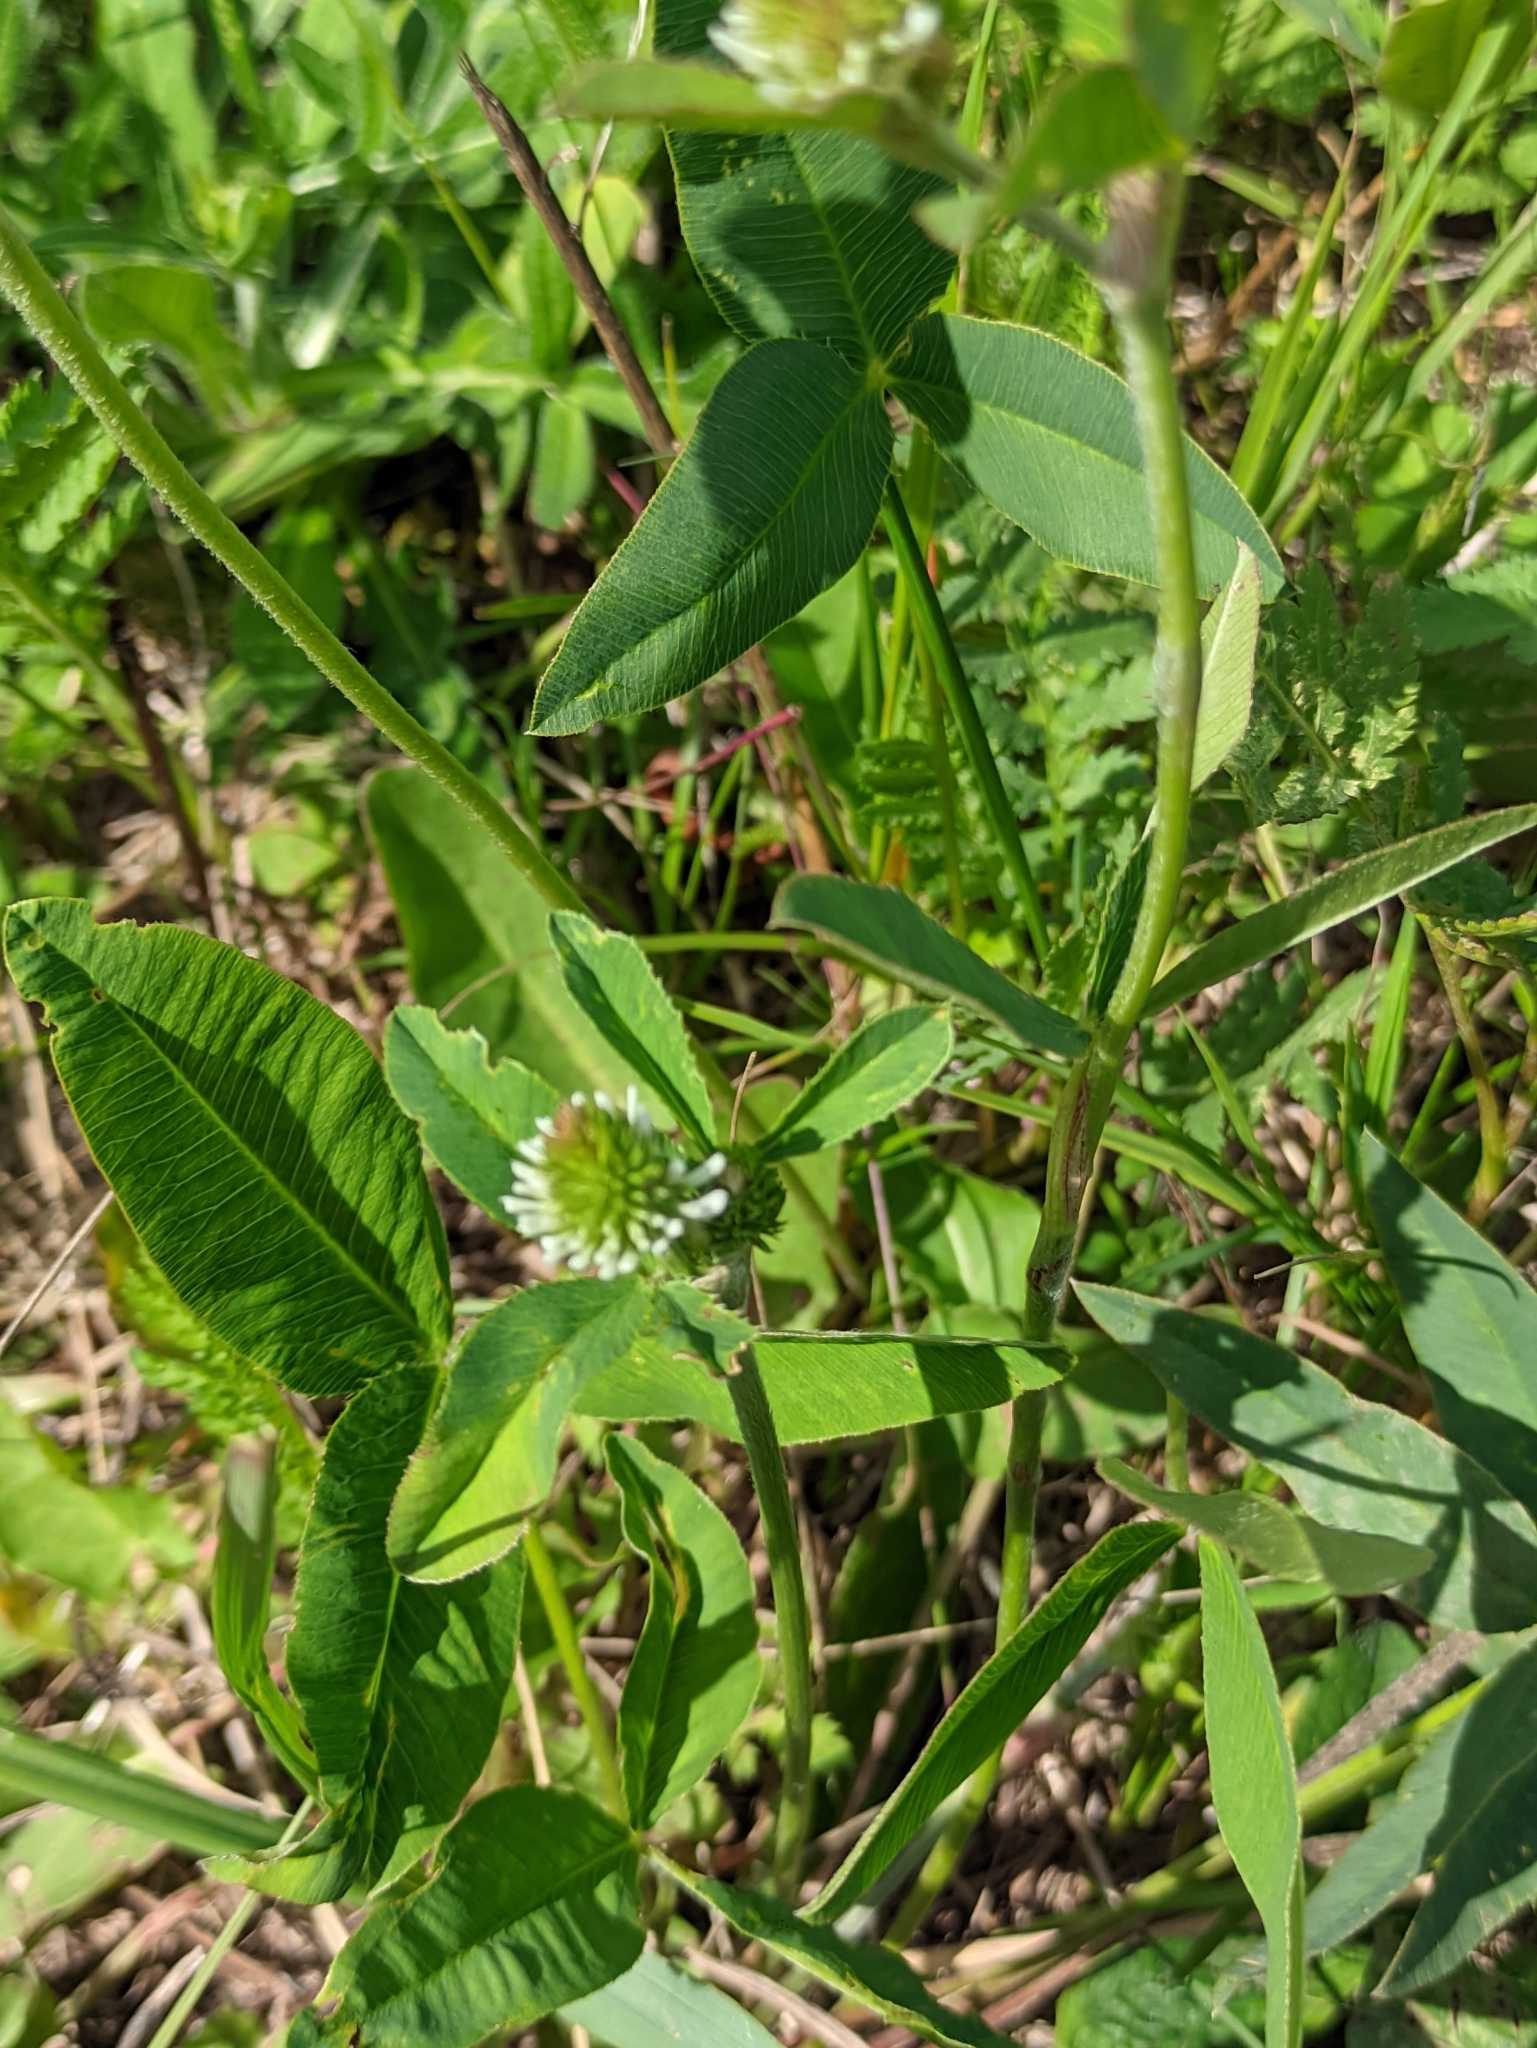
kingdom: Plantae
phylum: Tracheophyta
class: Magnoliopsida
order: Fabales
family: Fabaceae
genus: Trifolium
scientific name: Trifolium montanum
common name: Mountain clover
